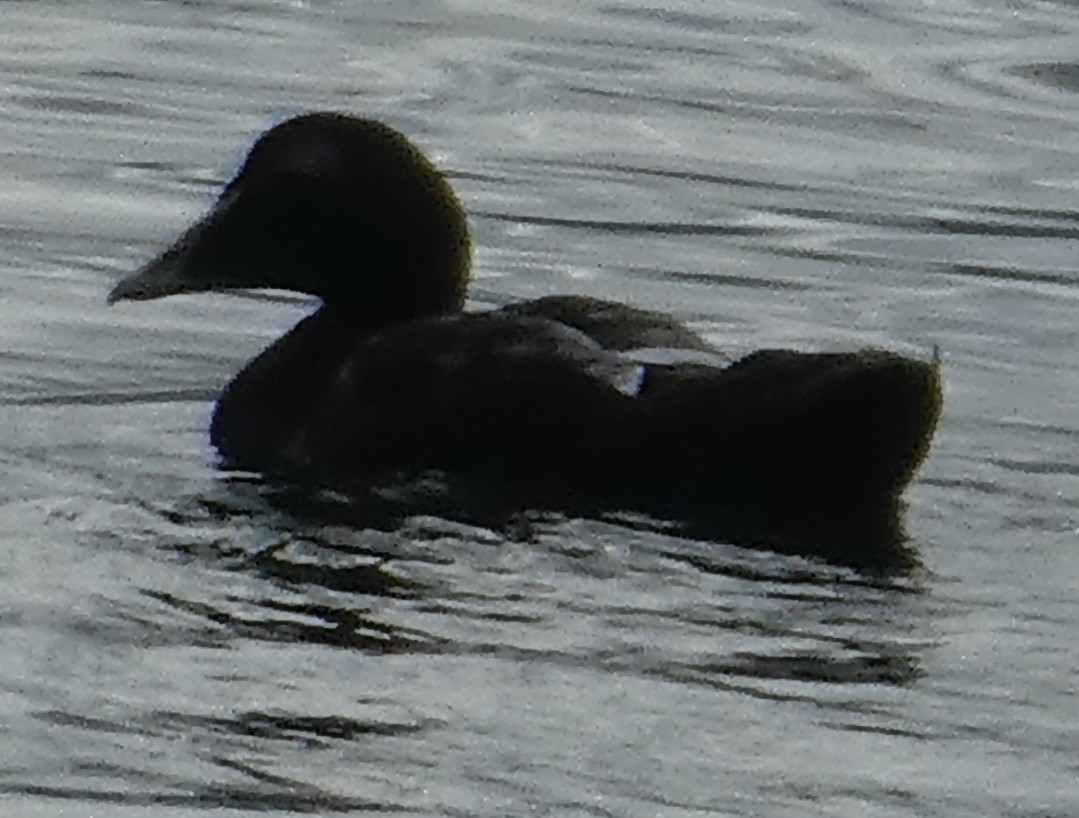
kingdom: Animalia
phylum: Chordata
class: Aves
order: Anseriformes
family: Anatidae
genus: Somateria
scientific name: Somateria mollissima
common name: Common eider
